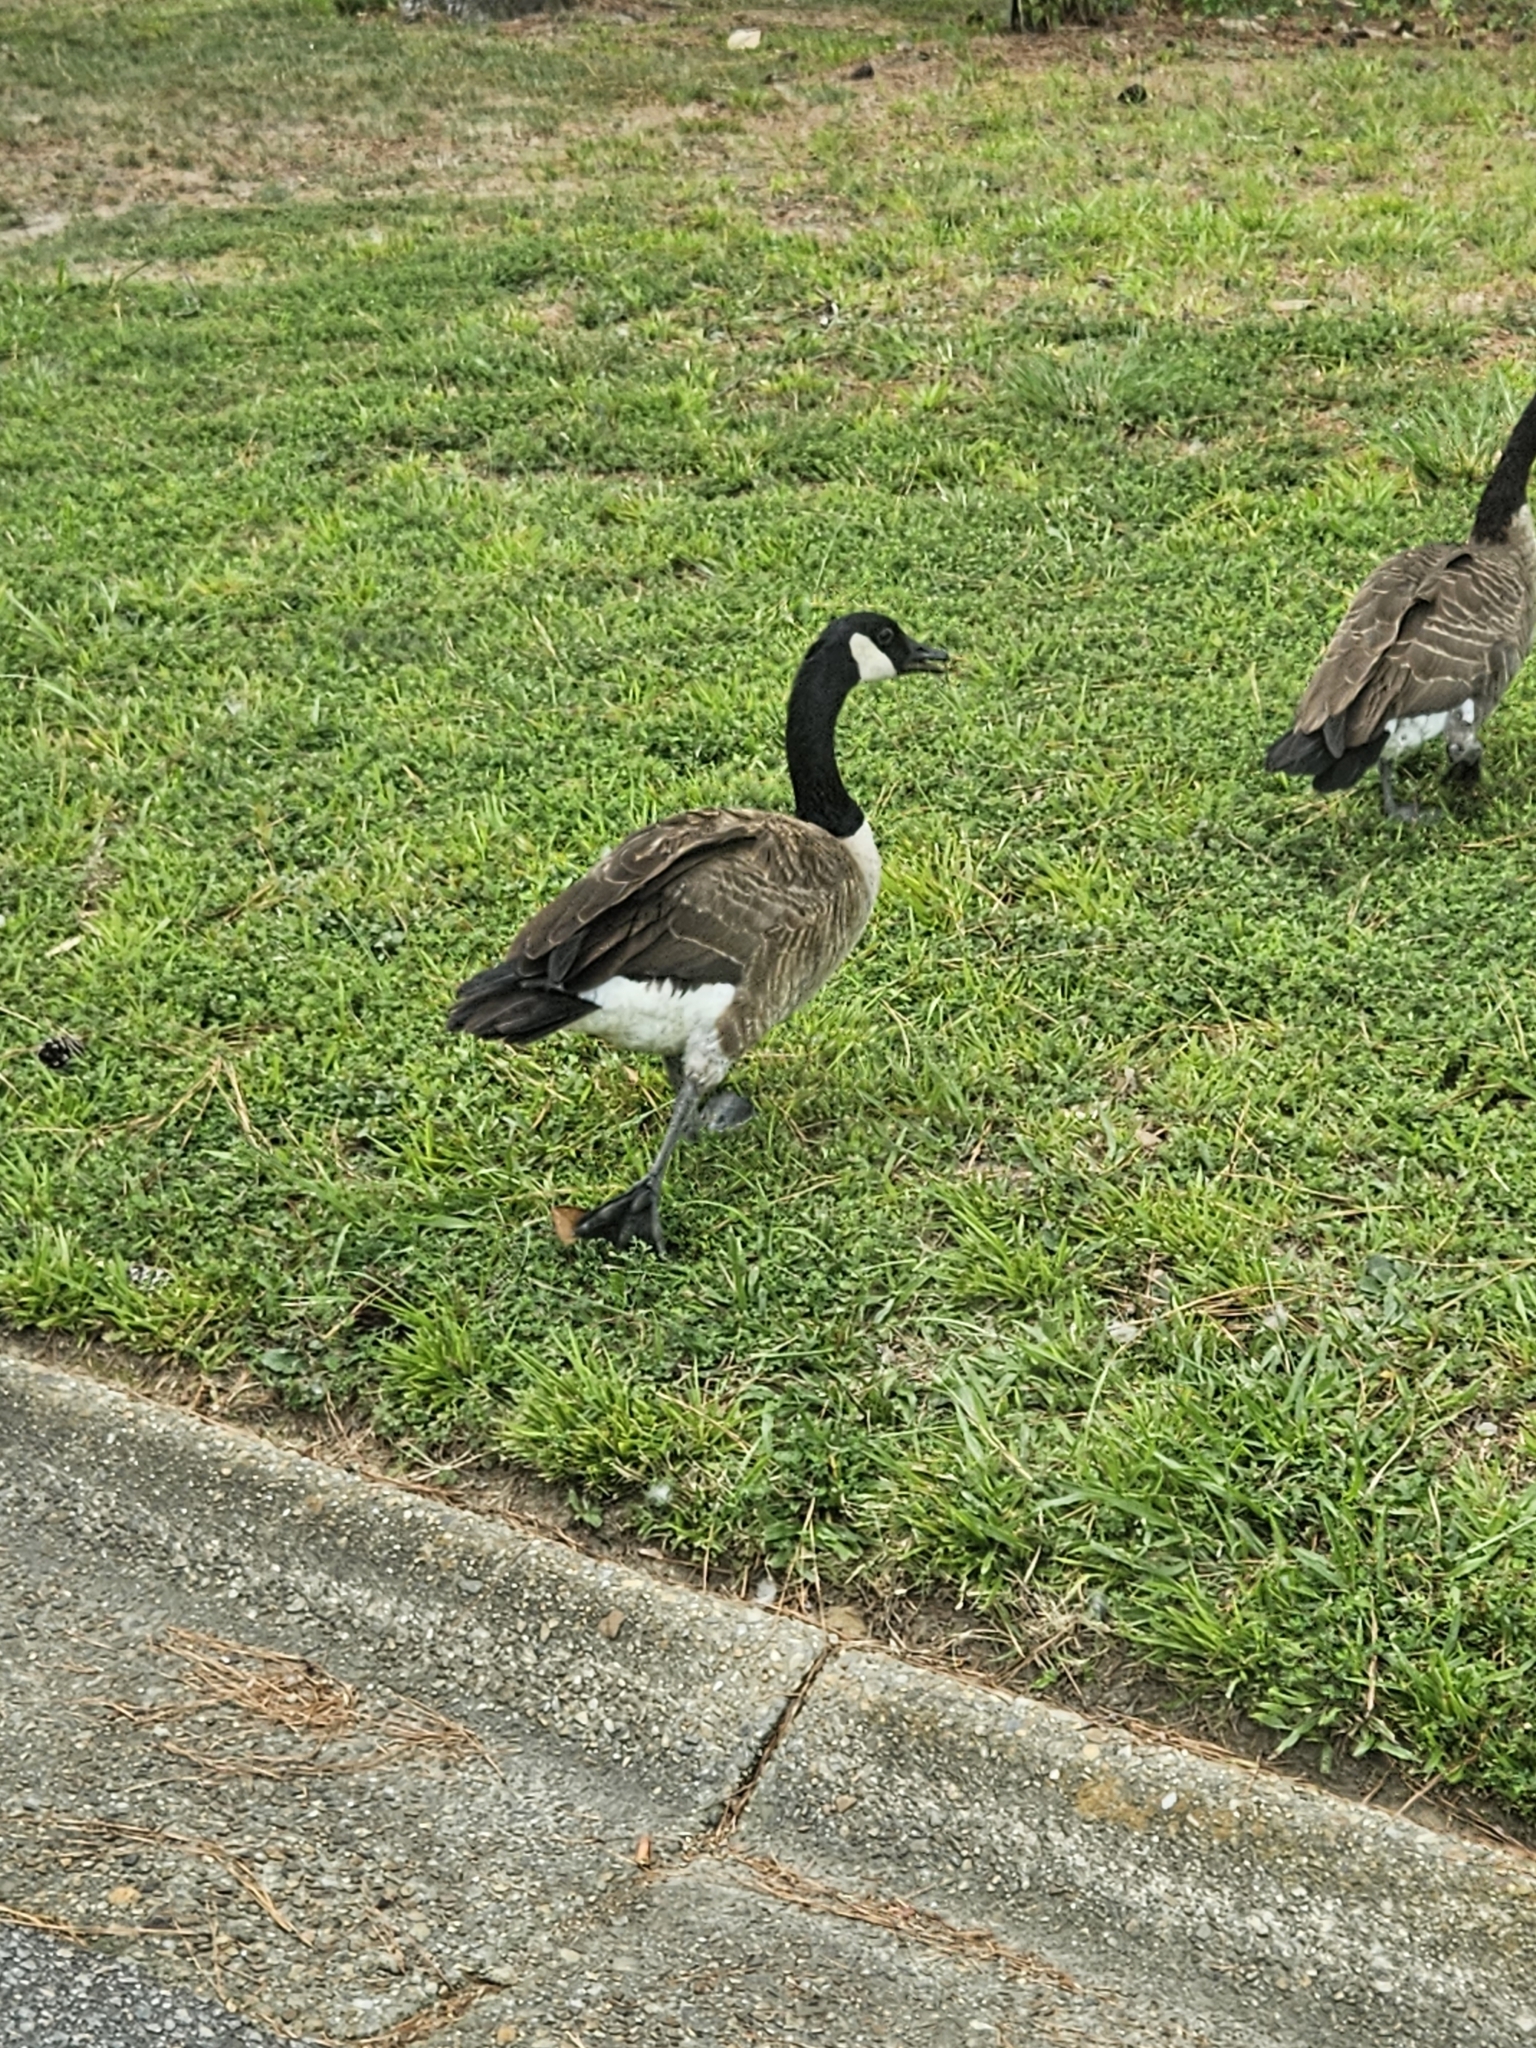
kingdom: Animalia
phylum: Chordata
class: Aves
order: Anseriformes
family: Anatidae
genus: Branta
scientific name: Branta canadensis
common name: Canada goose
